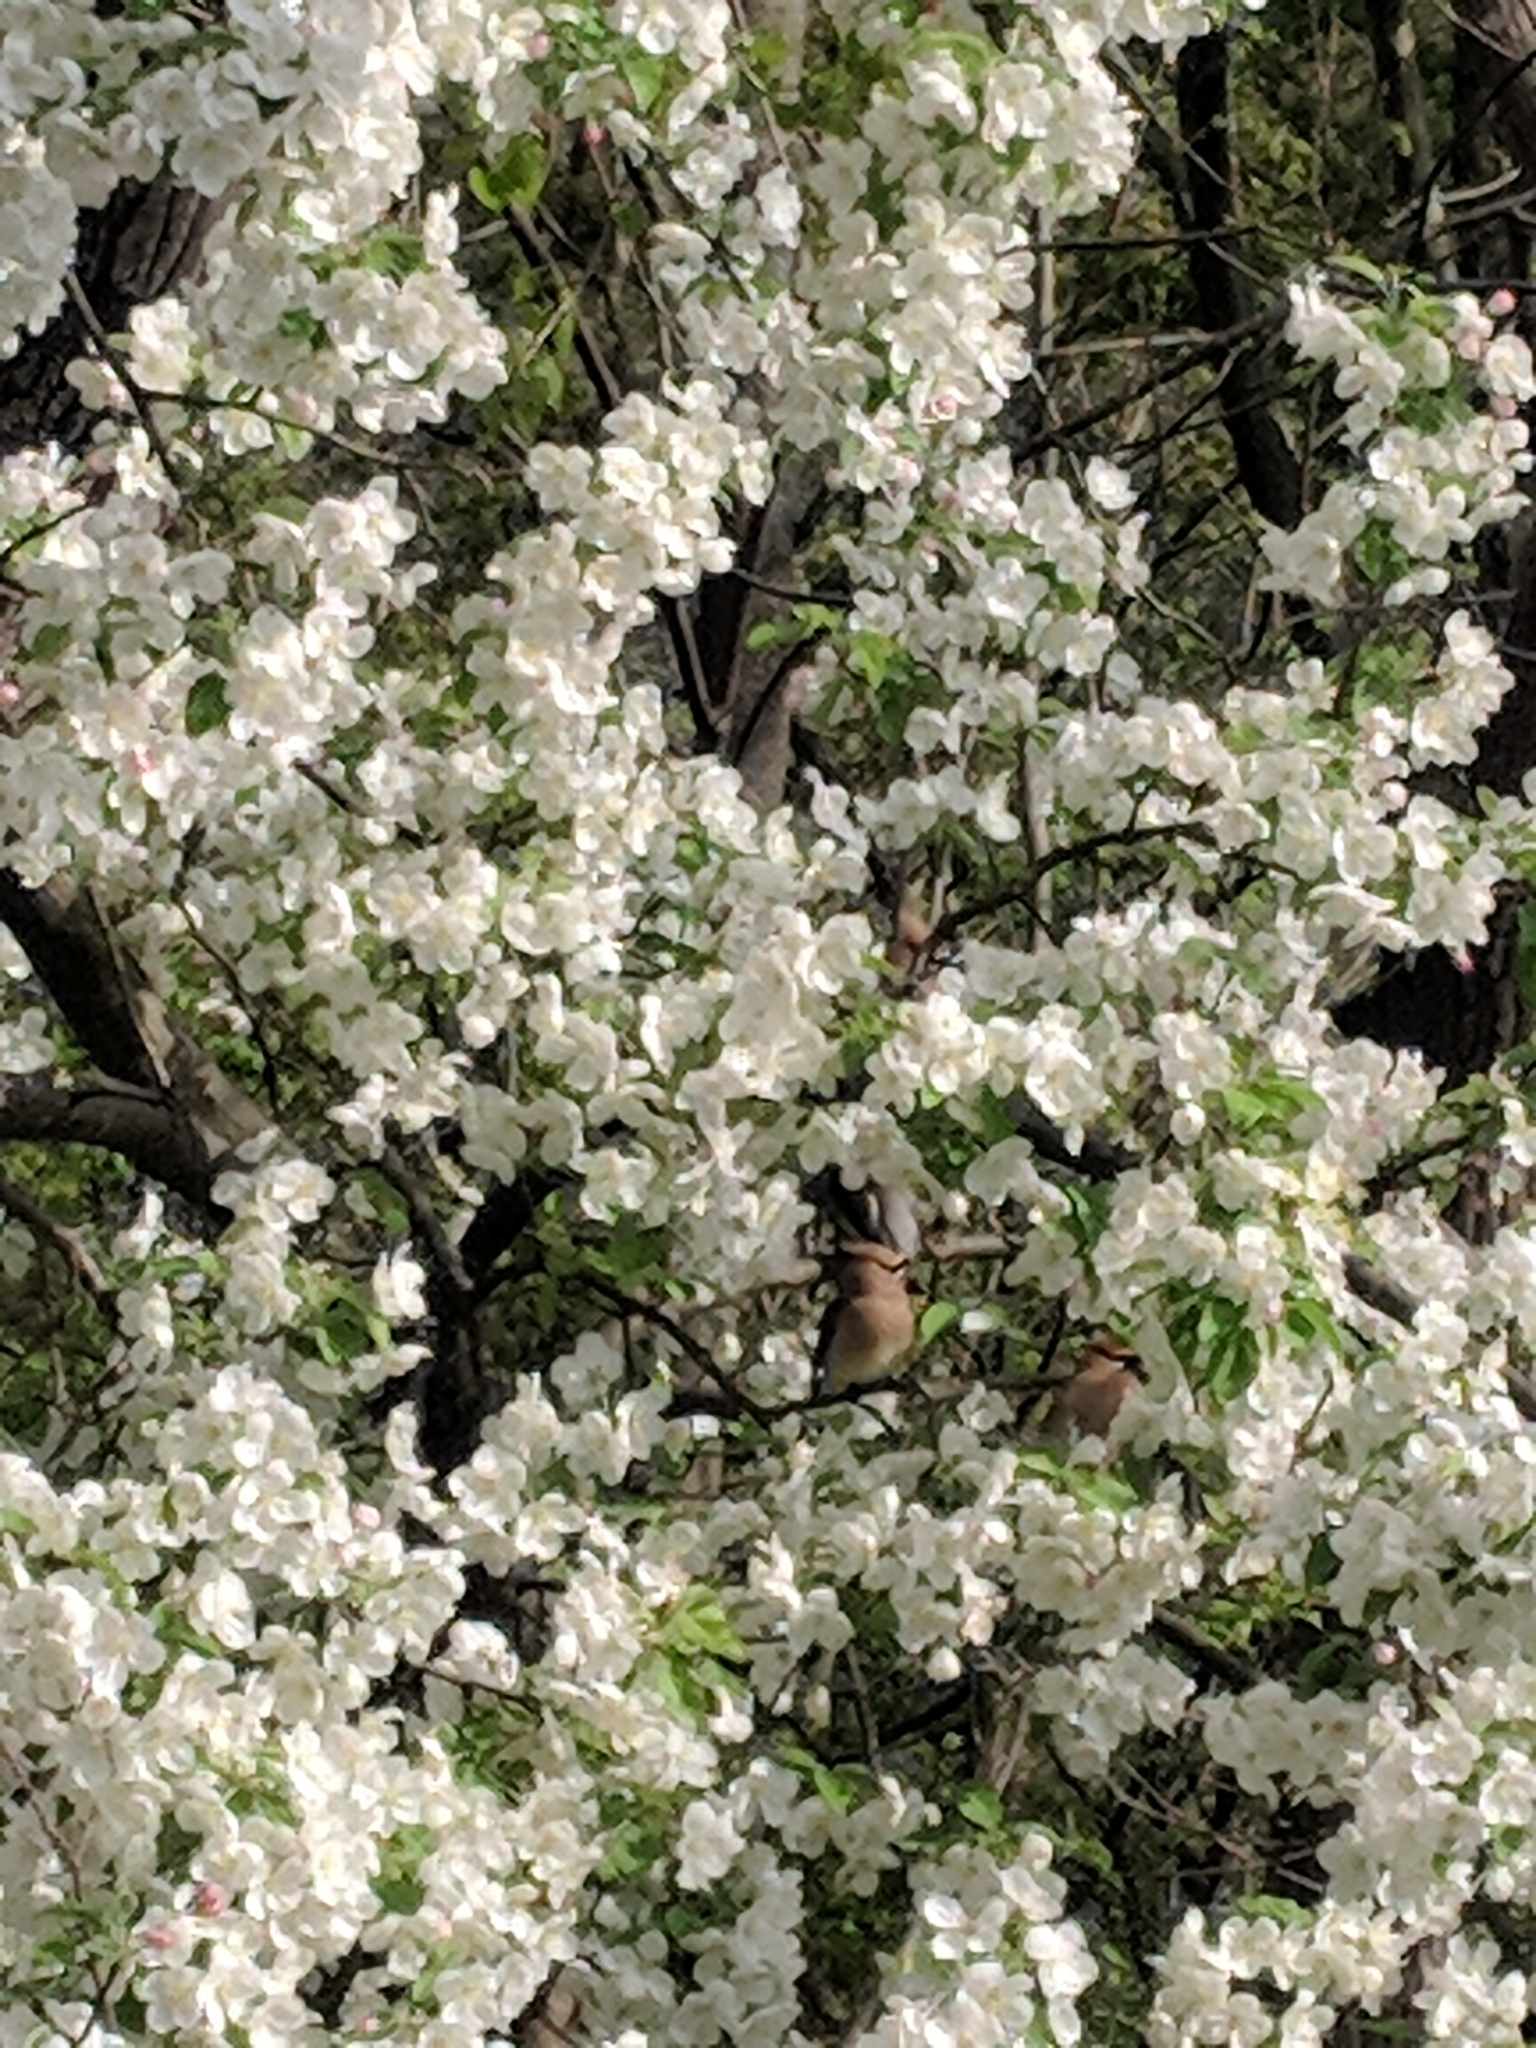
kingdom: Animalia
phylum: Chordata
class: Aves
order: Passeriformes
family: Bombycillidae
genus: Bombycilla
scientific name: Bombycilla cedrorum
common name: Cedar waxwing
